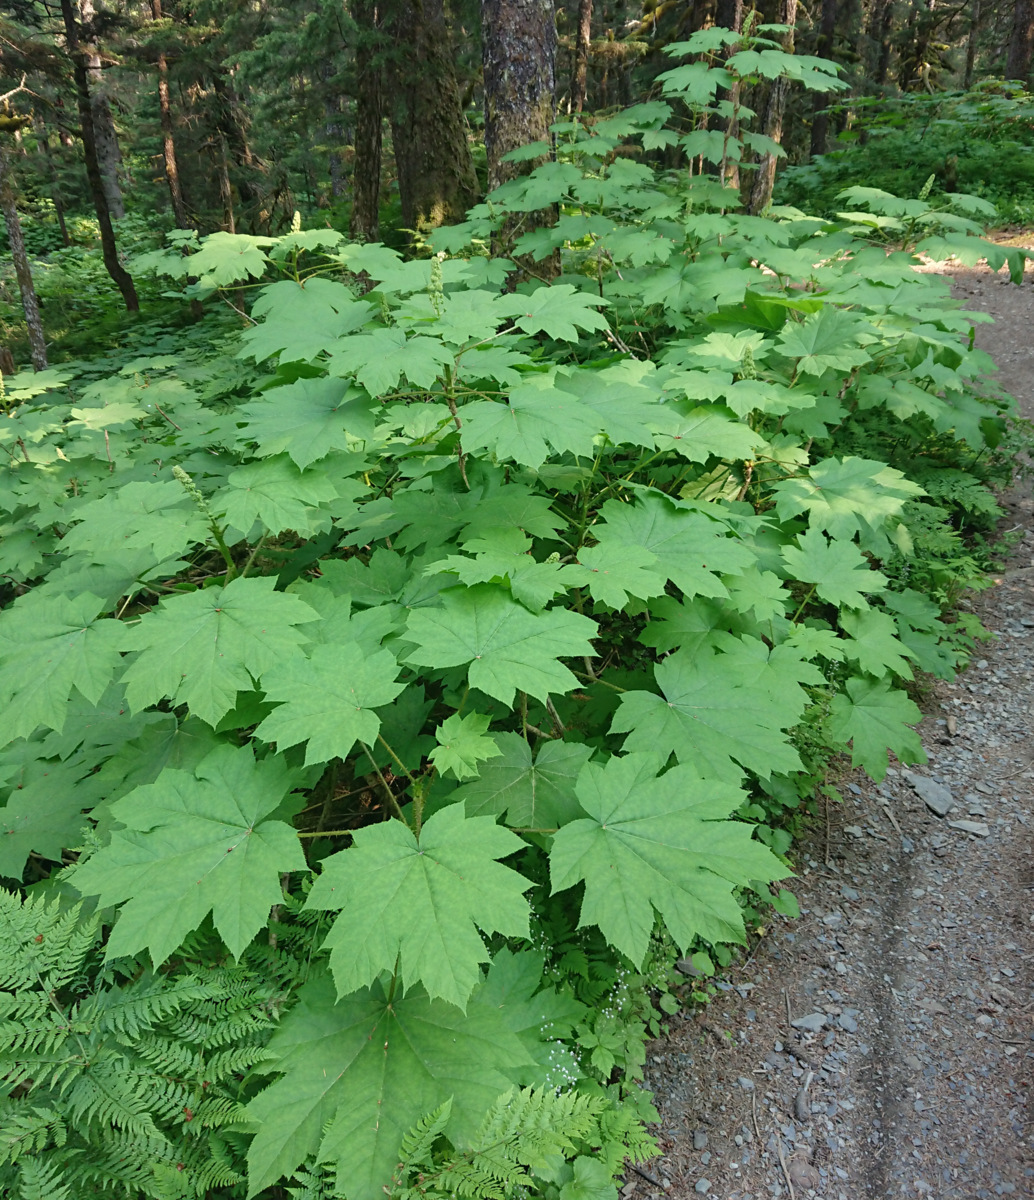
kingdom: Plantae
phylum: Tracheophyta
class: Magnoliopsida
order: Apiales
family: Araliaceae
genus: Oplopanax
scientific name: Oplopanax horridus
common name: Devil's walking-stick
